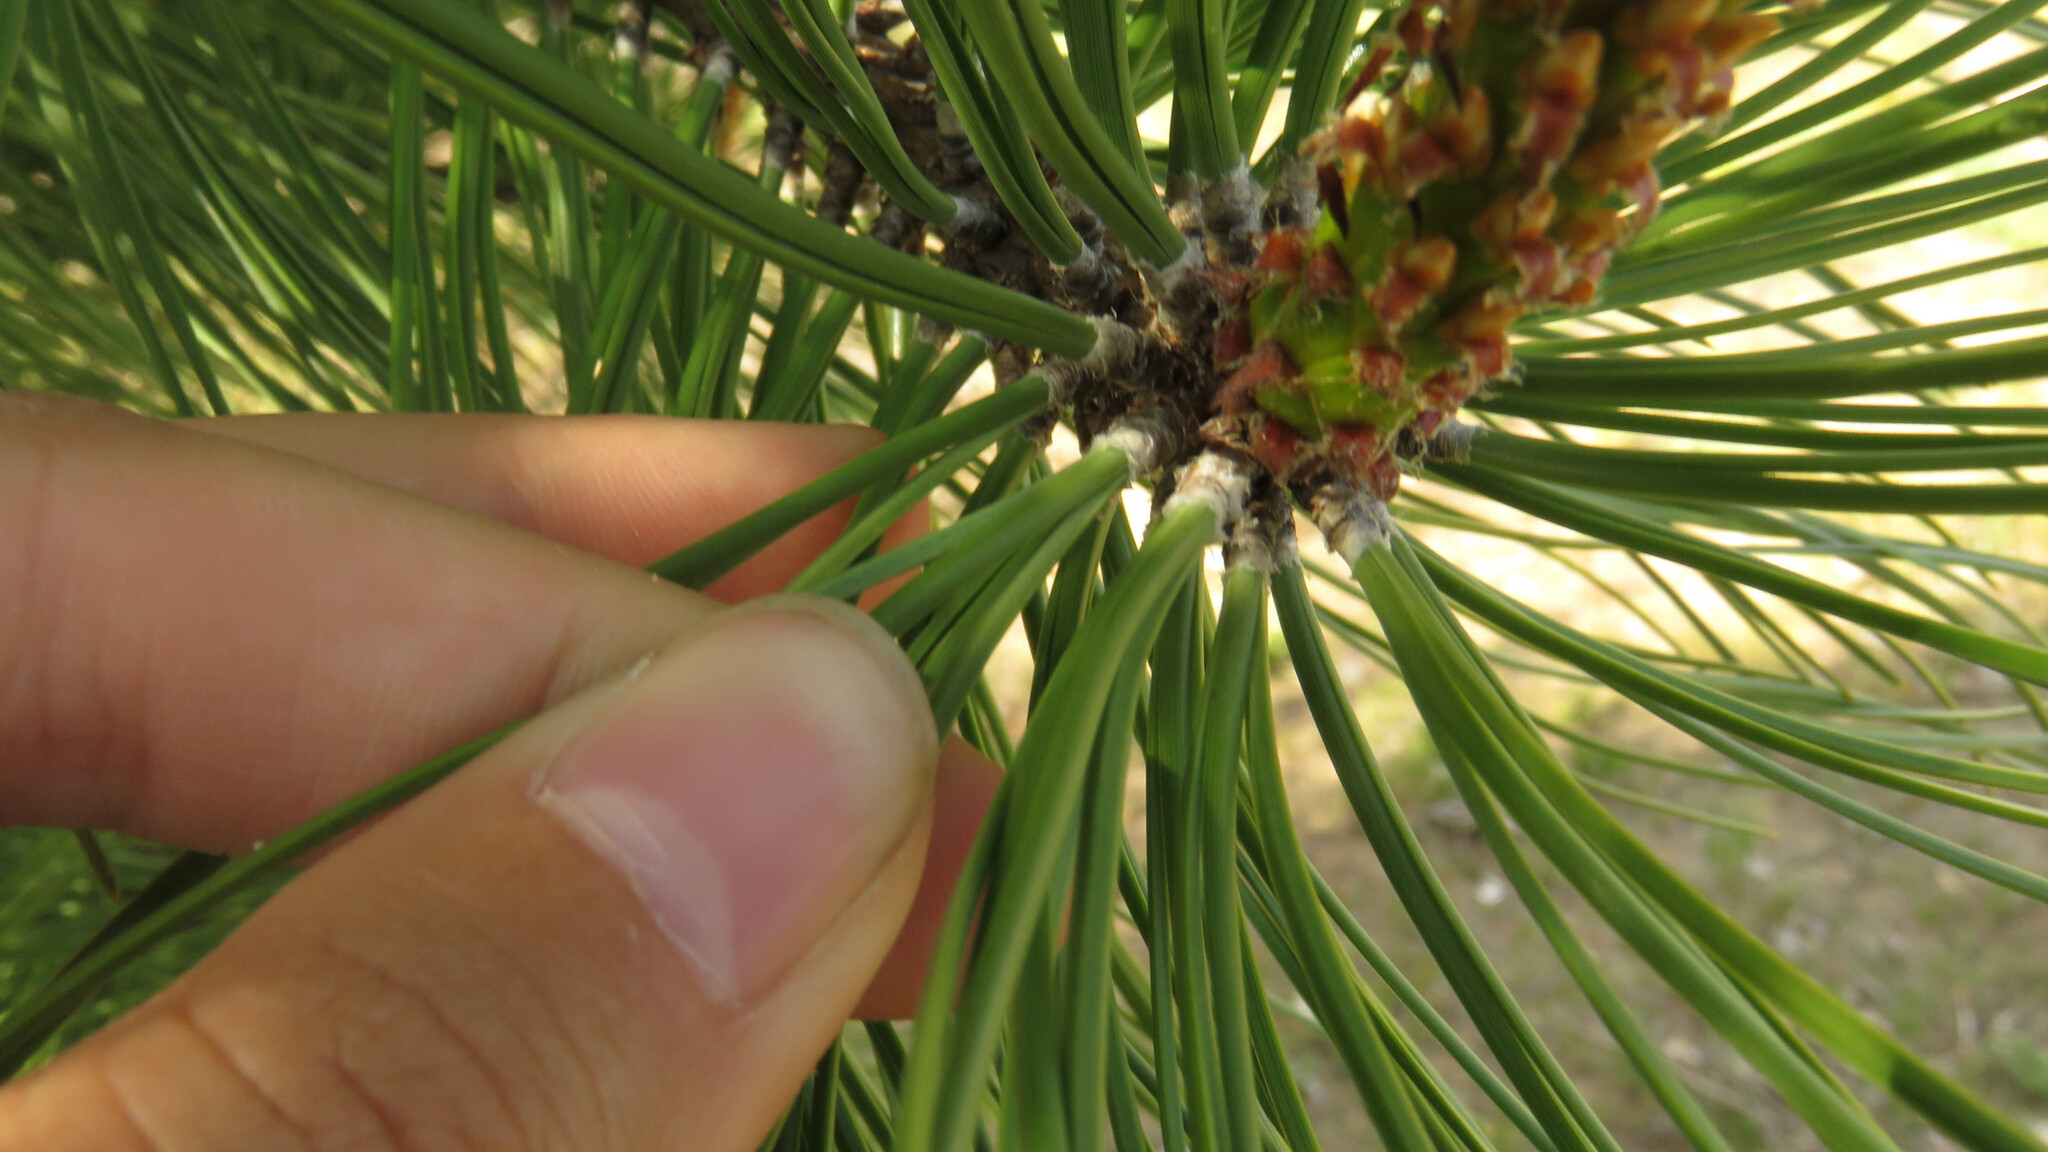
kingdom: Plantae
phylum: Tracheophyta
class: Pinopsida
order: Pinales
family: Pinaceae
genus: Pinus
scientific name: Pinus ponderosa
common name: Western yellow-pine
